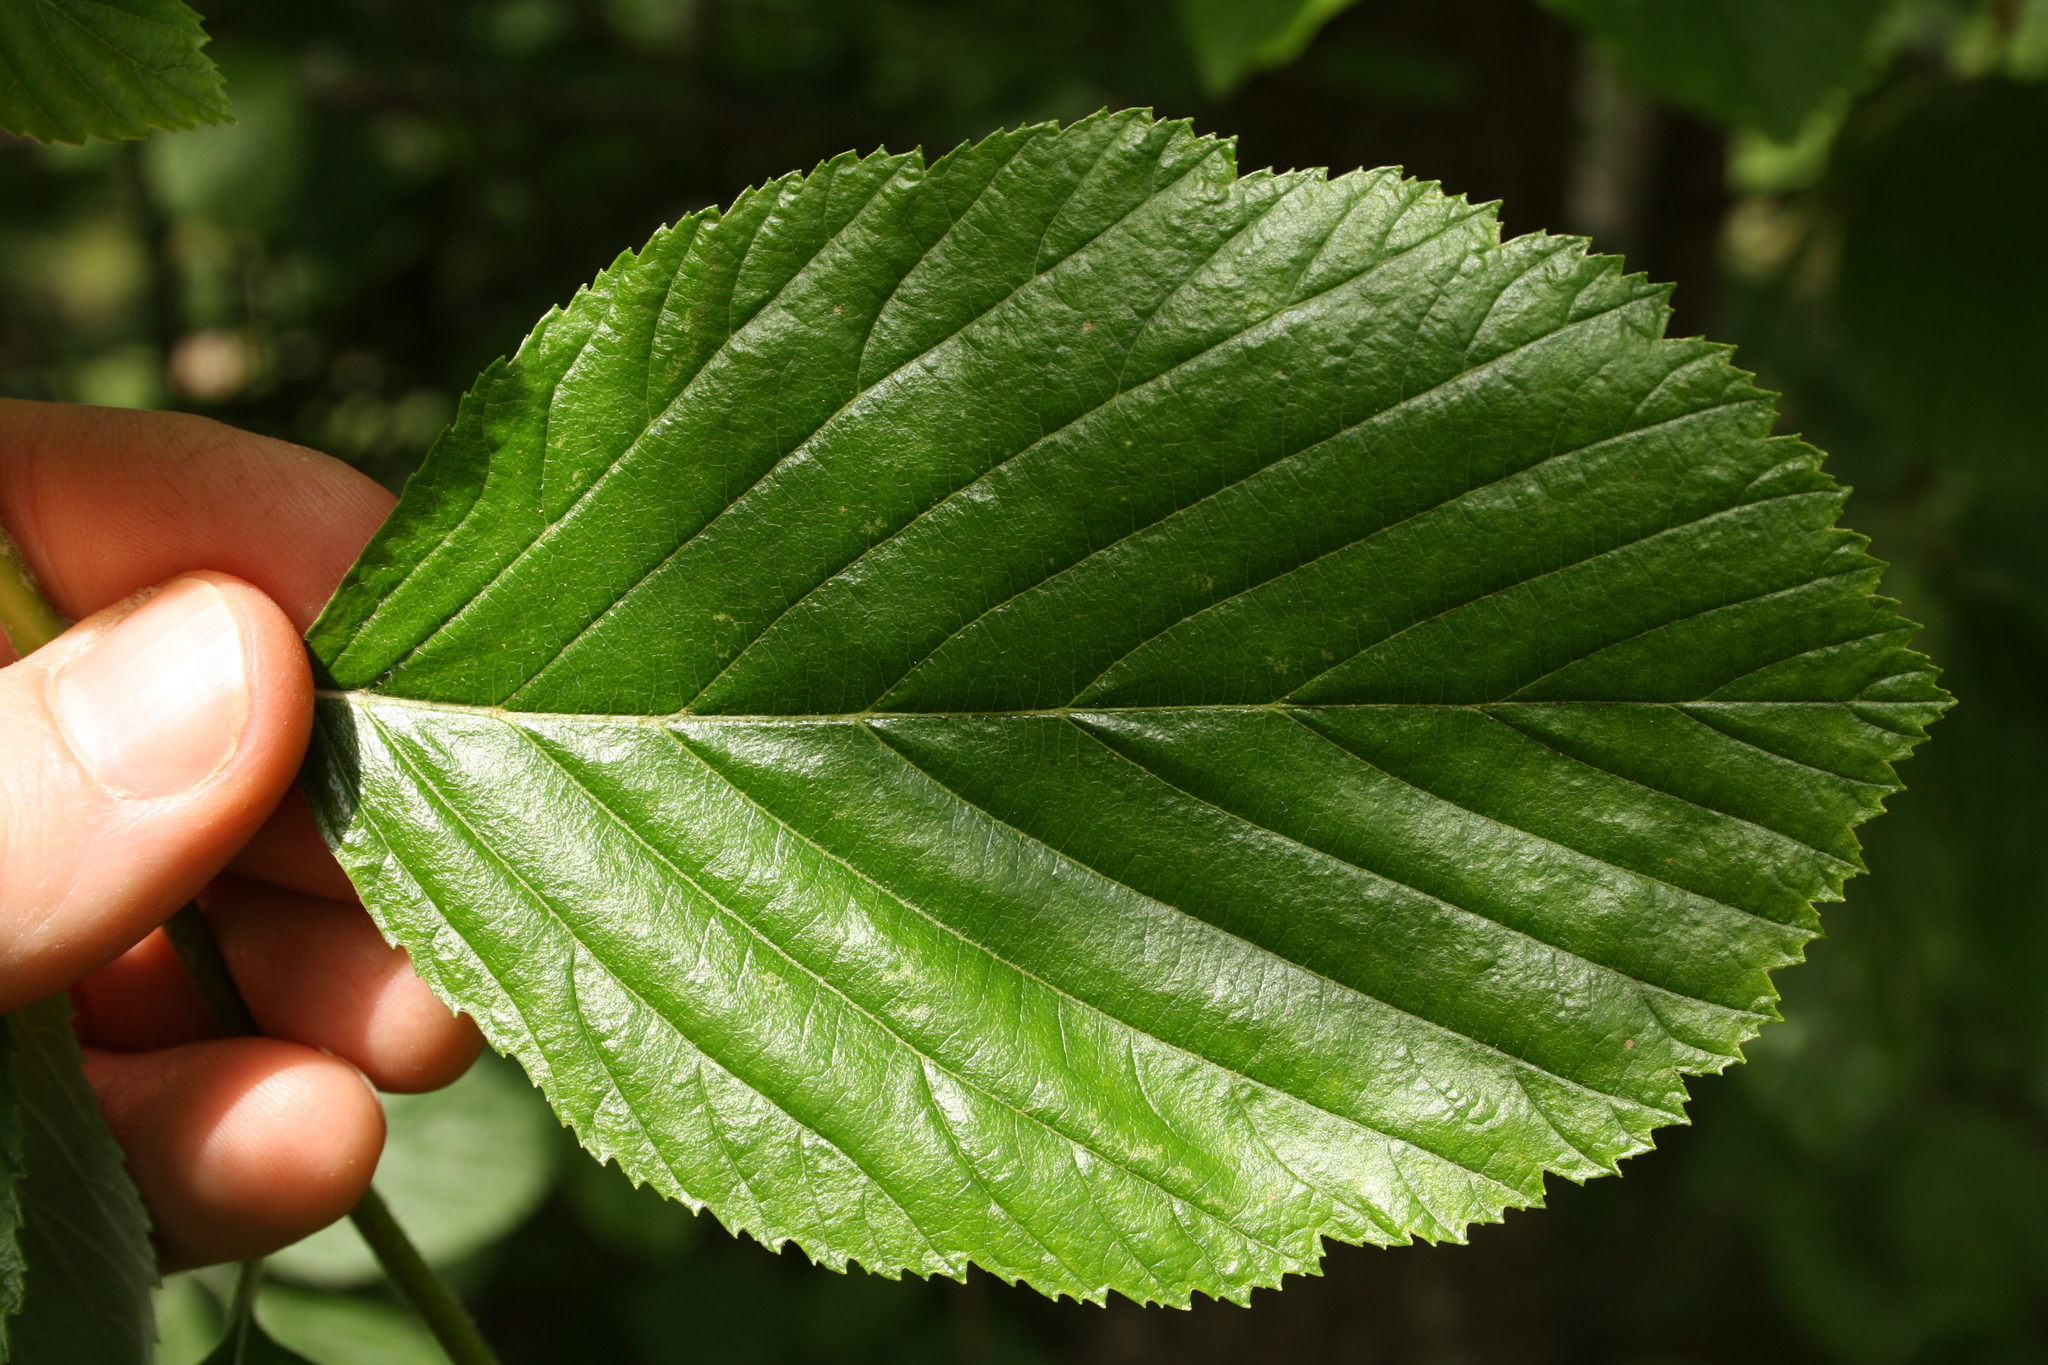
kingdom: Plantae
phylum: Tracheophyta
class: Magnoliopsida
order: Rosales
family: Rosaceae
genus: Aria
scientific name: Aria edulis
